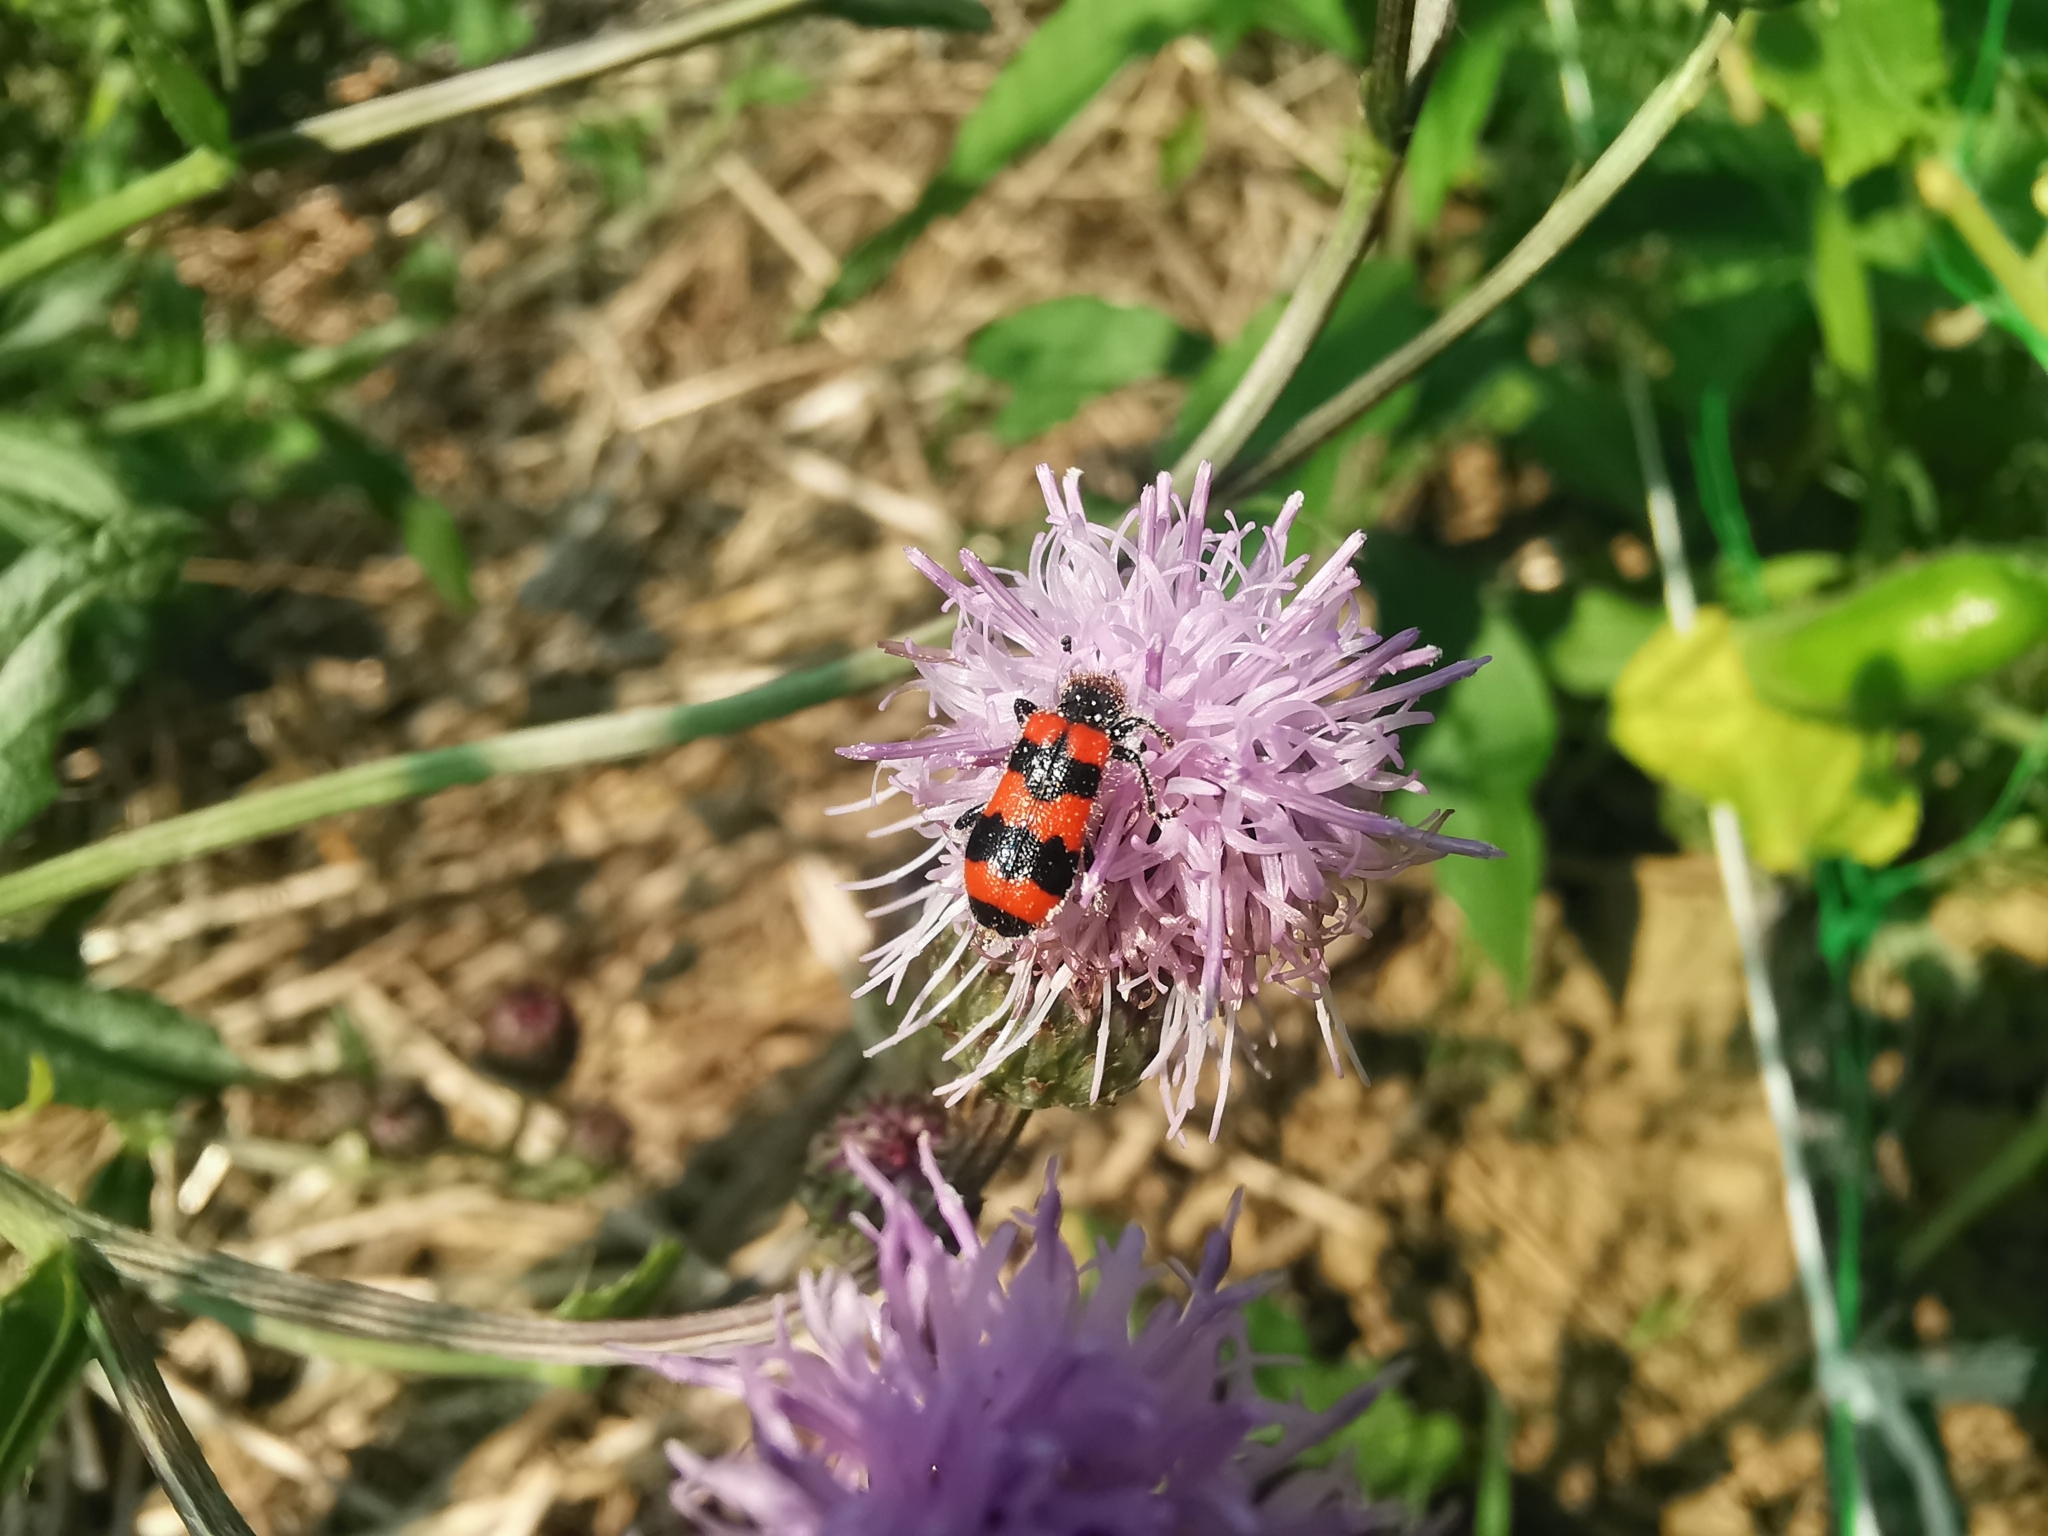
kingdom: Animalia
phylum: Arthropoda
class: Insecta
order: Coleoptera
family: Cleridae
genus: Trichodes
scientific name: Trichodes apiarius
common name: Bee-eating beetle
